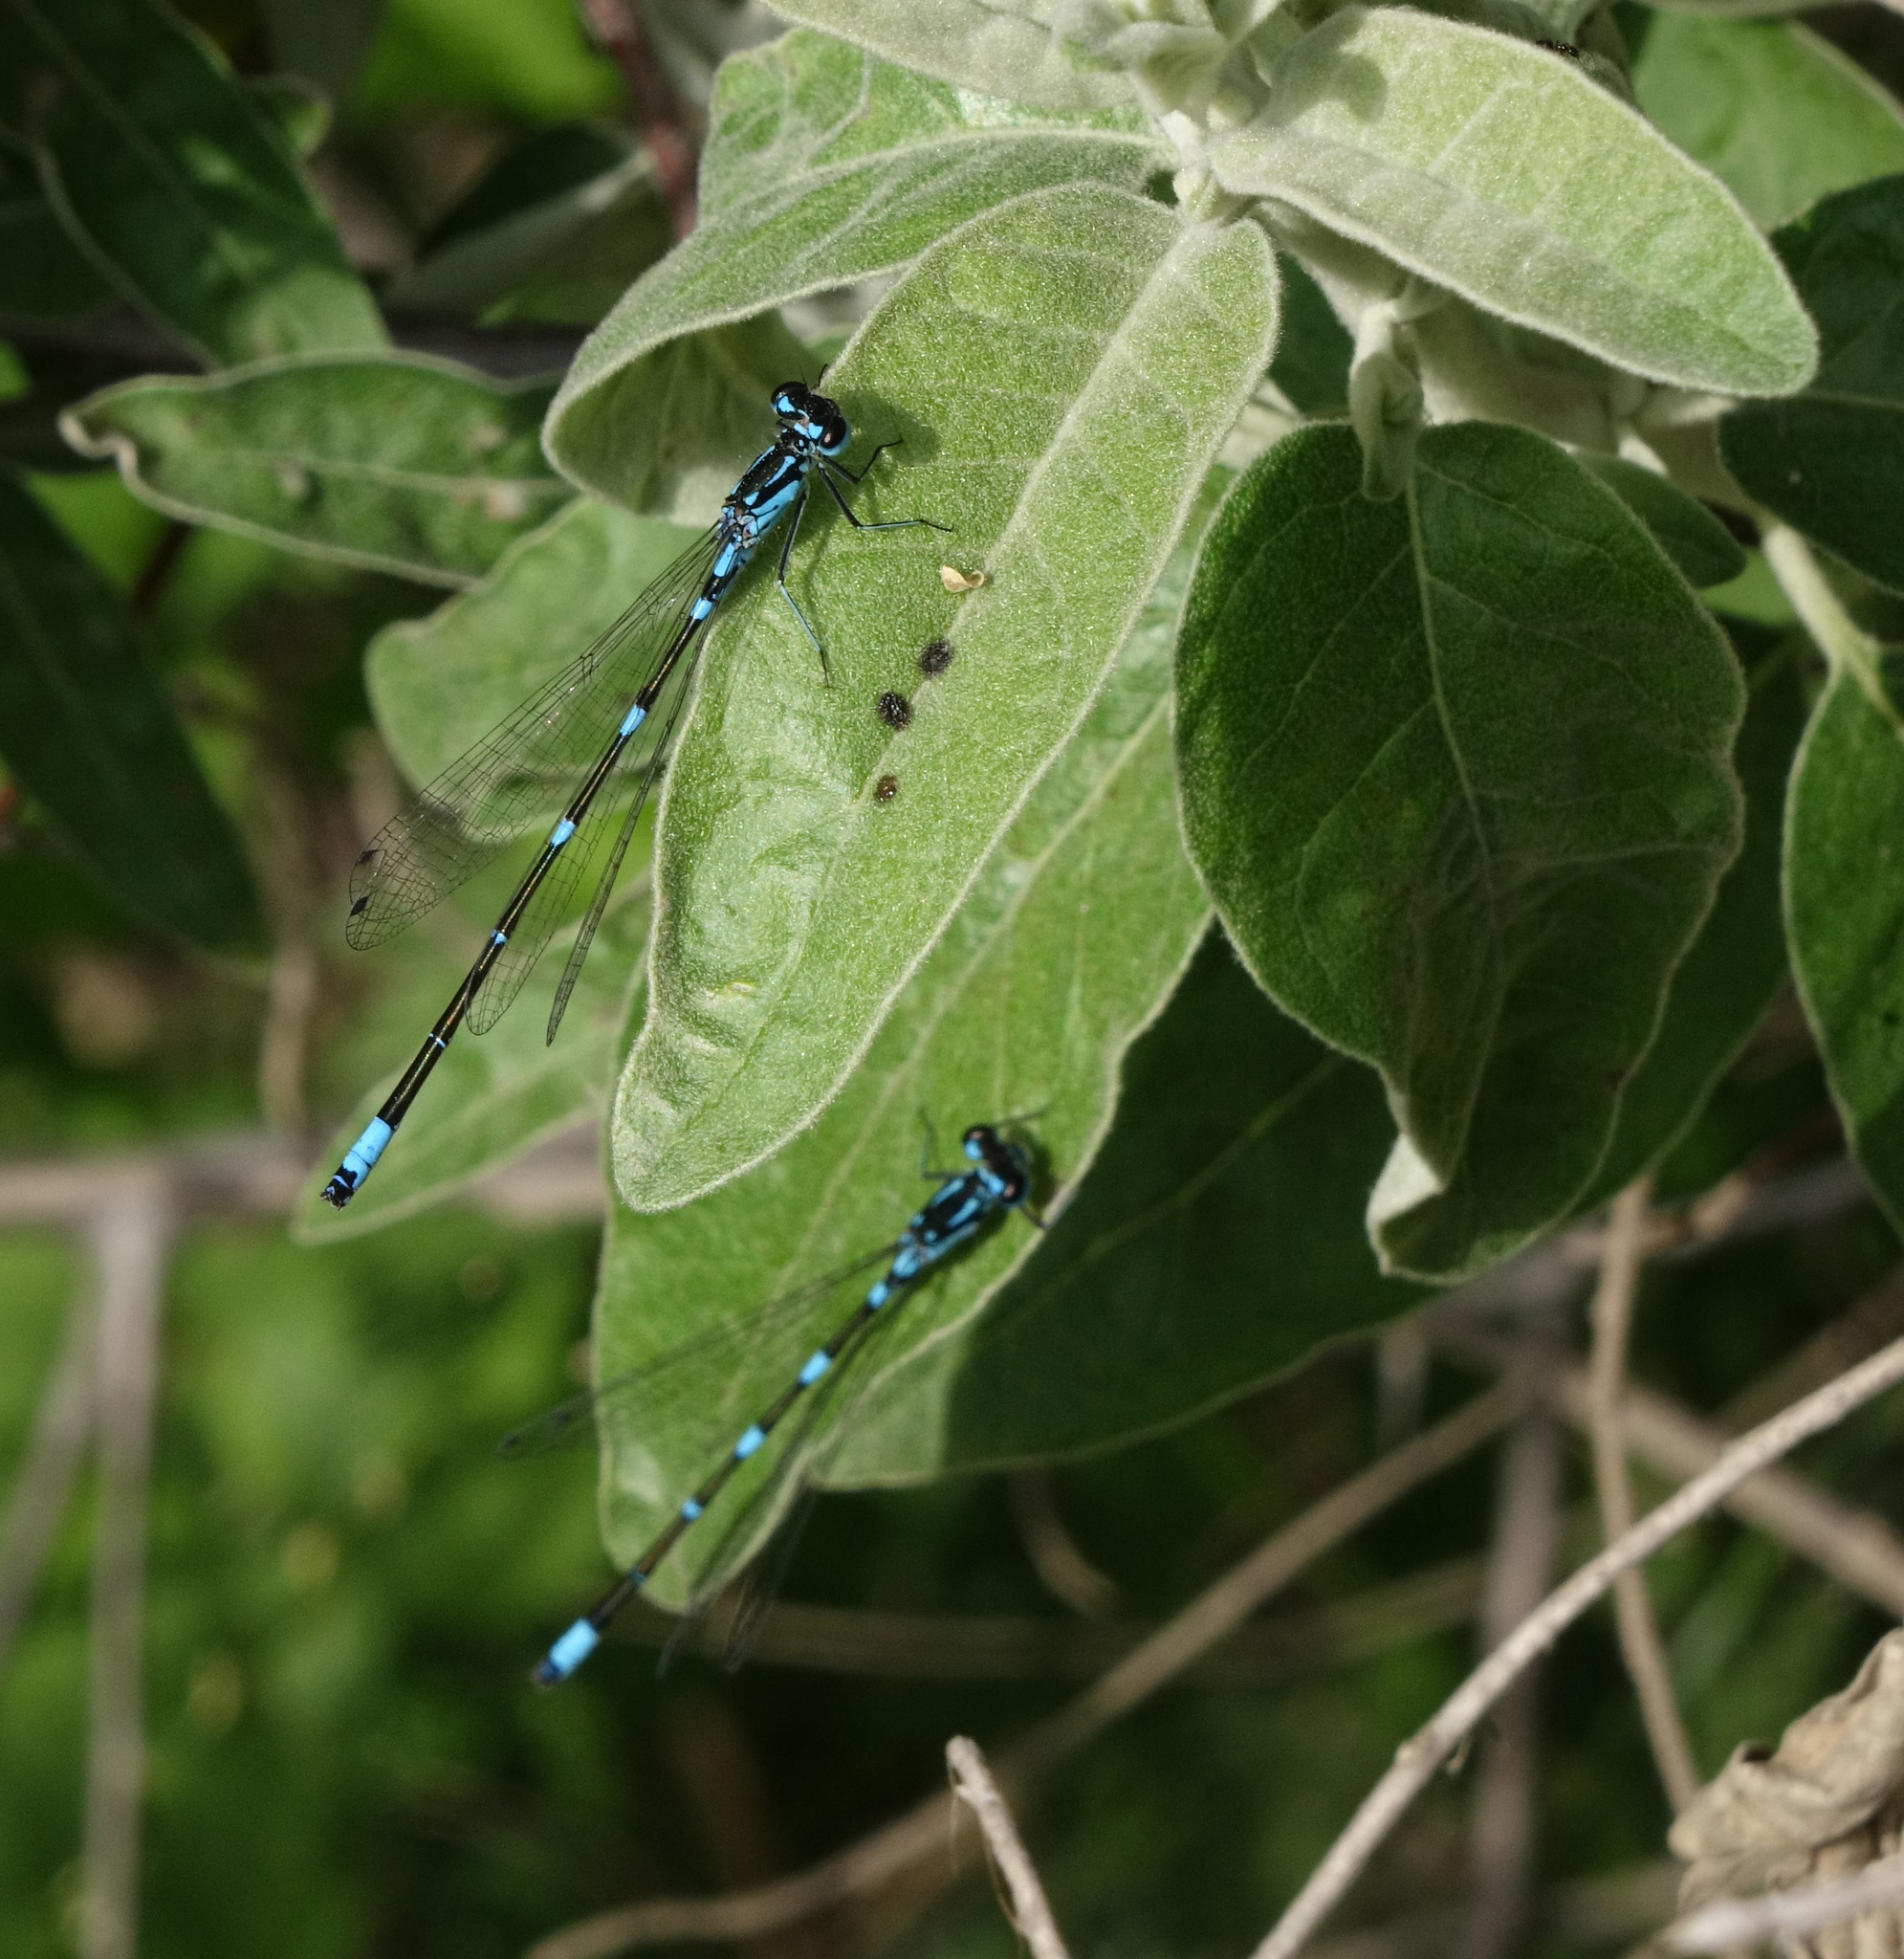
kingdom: Animalia
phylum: Arthropoda
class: Insecta
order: Odonata
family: Coenagrionidae
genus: Coenagrion
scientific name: Coenagrion pulchellum
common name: Variable bluet
